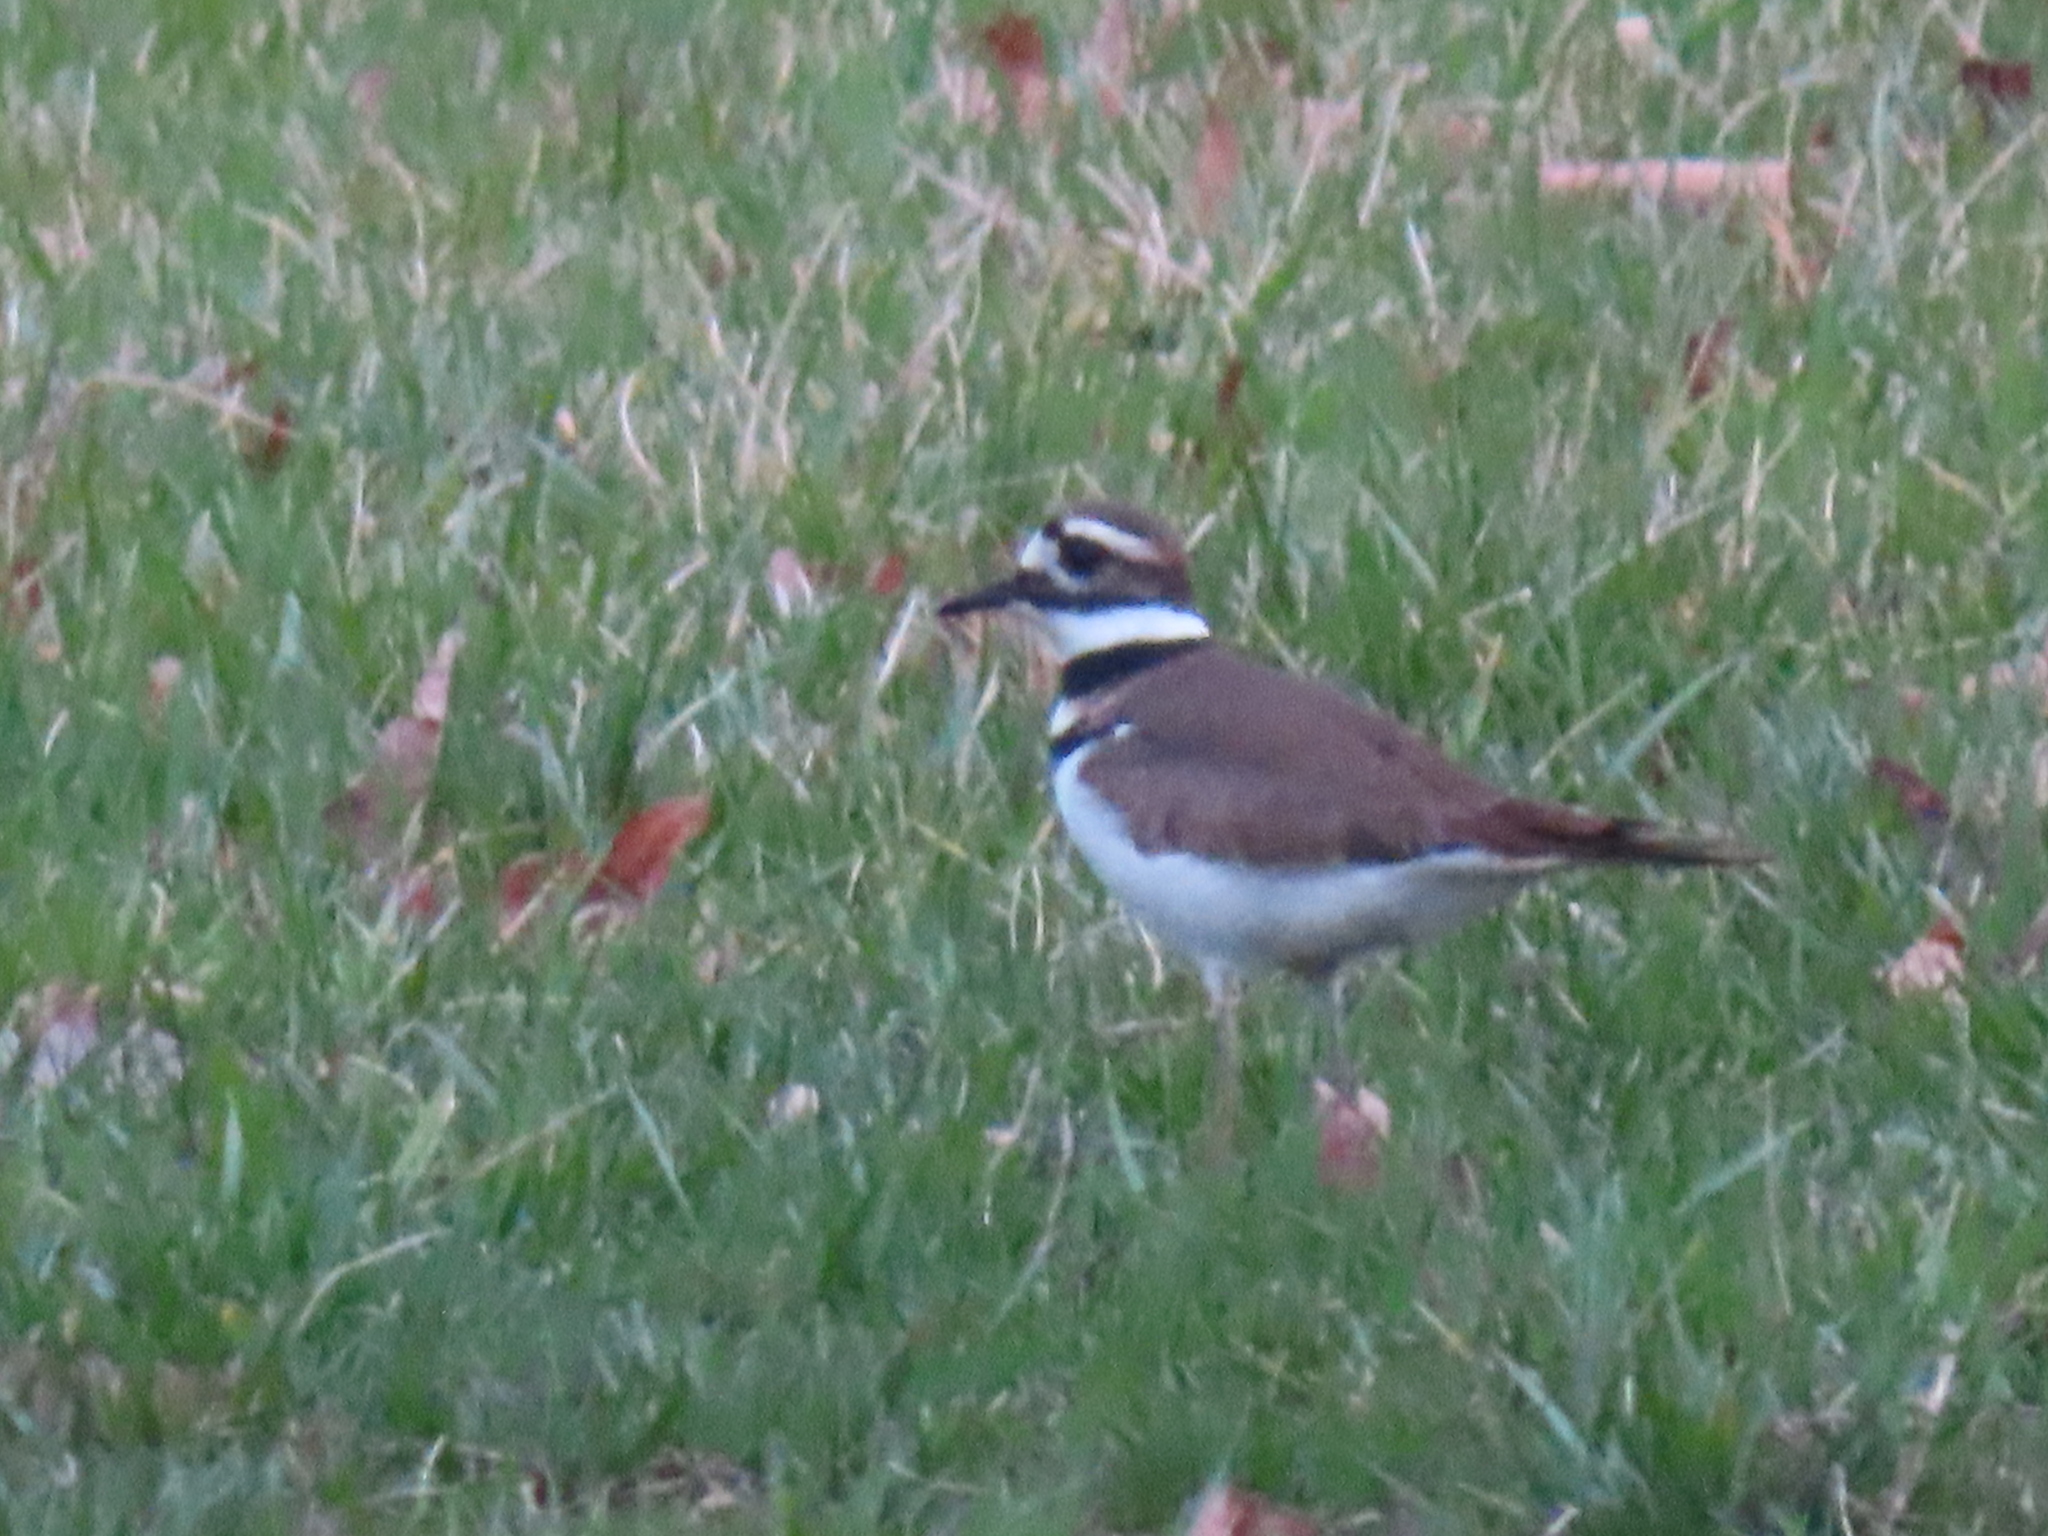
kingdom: Animalia
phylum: Chordata
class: Aves
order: Charadriiformes
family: Charadriidae
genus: Charadrius
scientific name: Charadrius vociferus
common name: Killdeer
